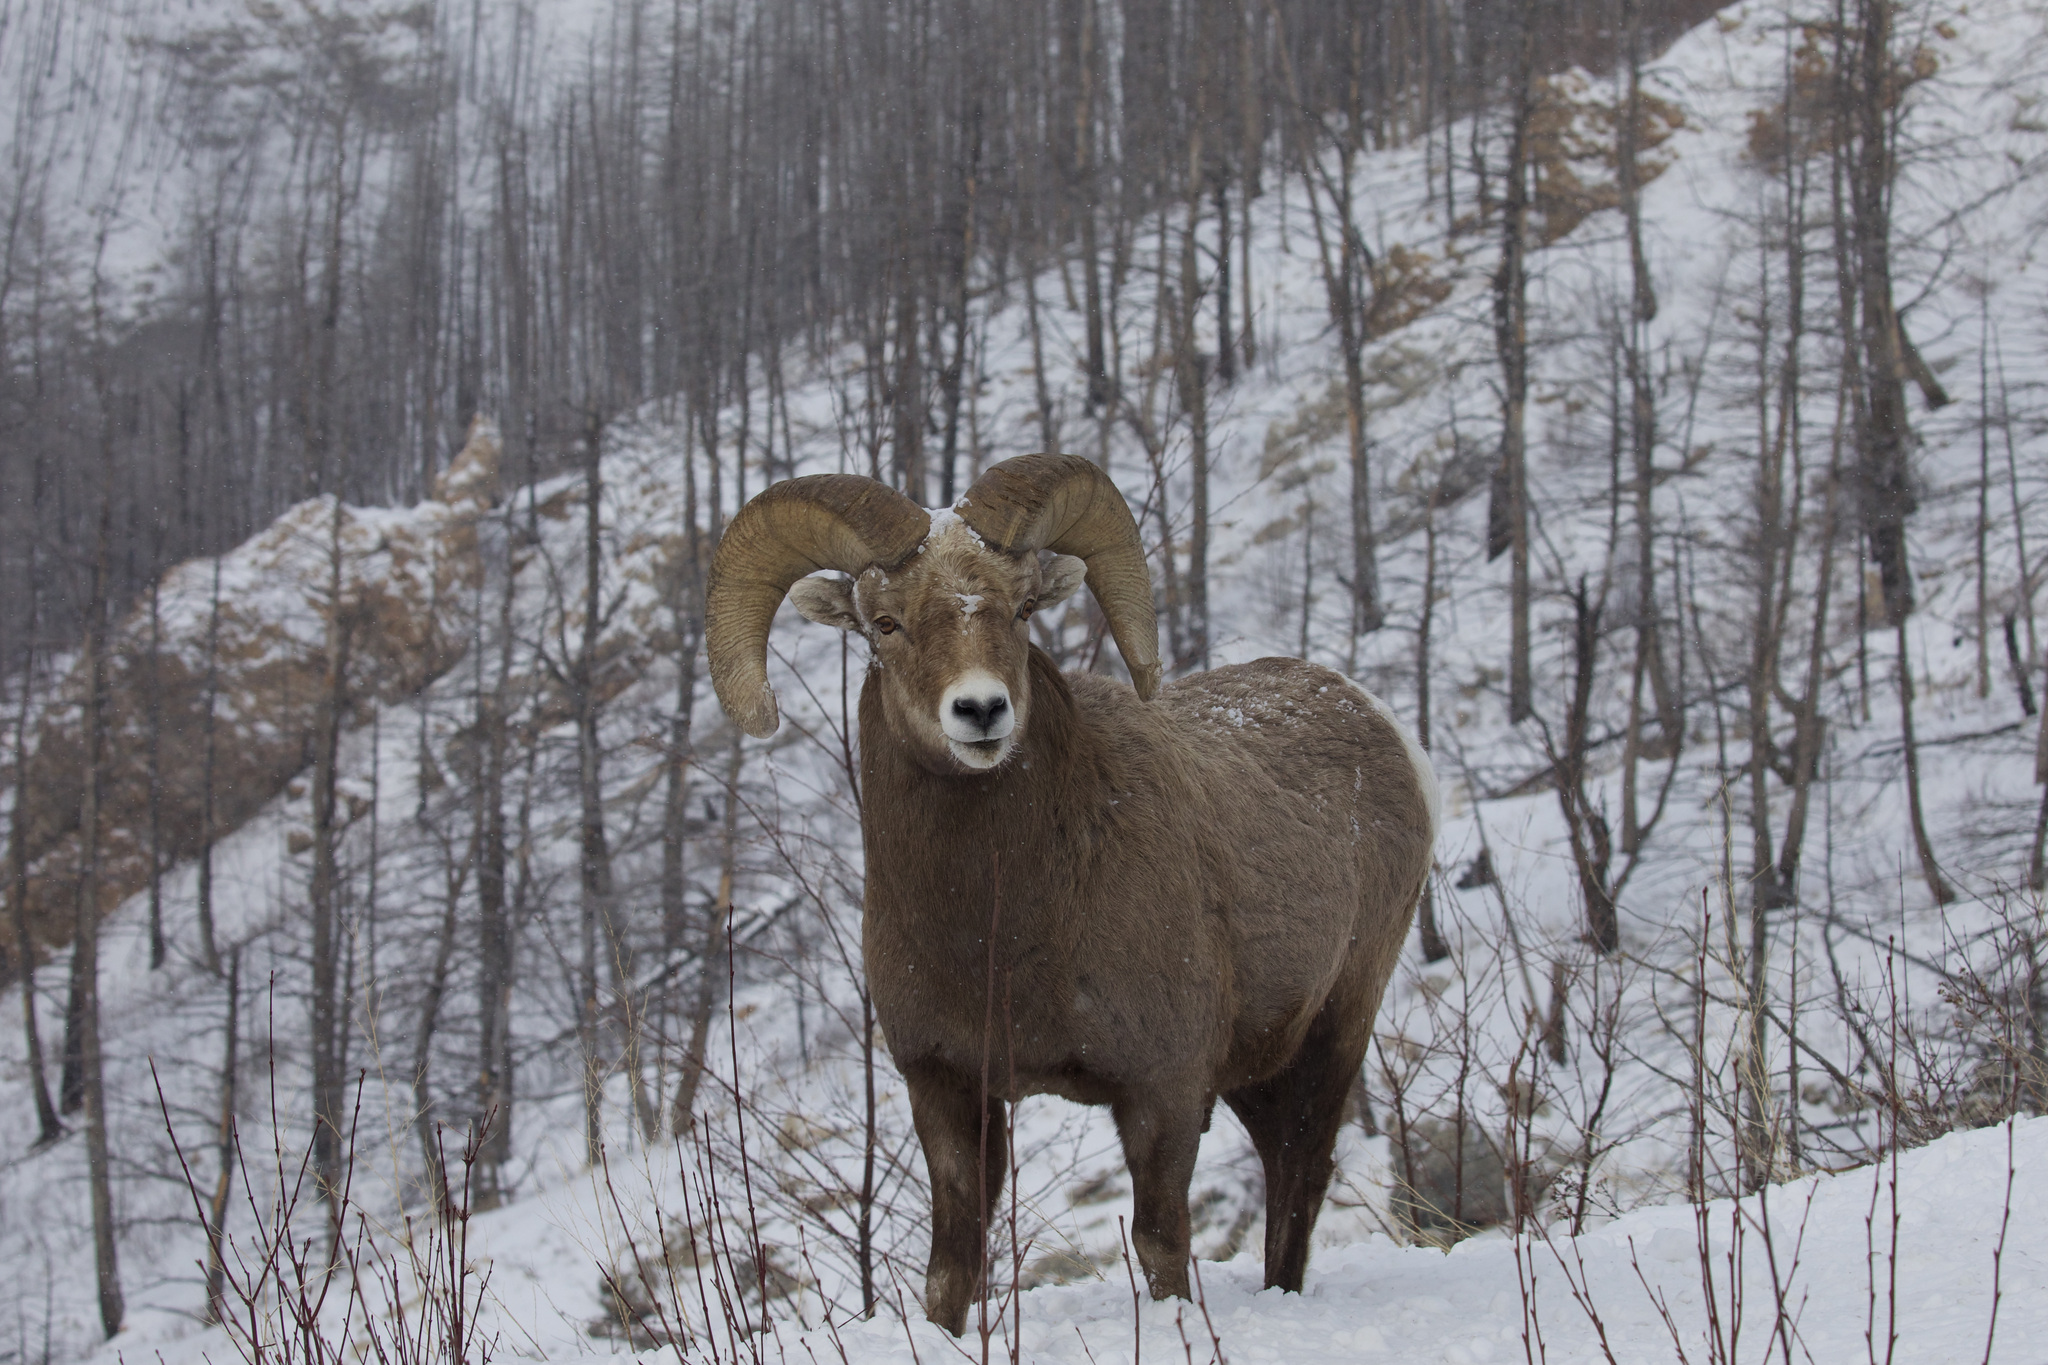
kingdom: Animalia
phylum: Chordata
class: Mammalia
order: Artiodactyla
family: Bovidae
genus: Ovis
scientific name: Ovis canadensis
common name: Bighorn sheep
